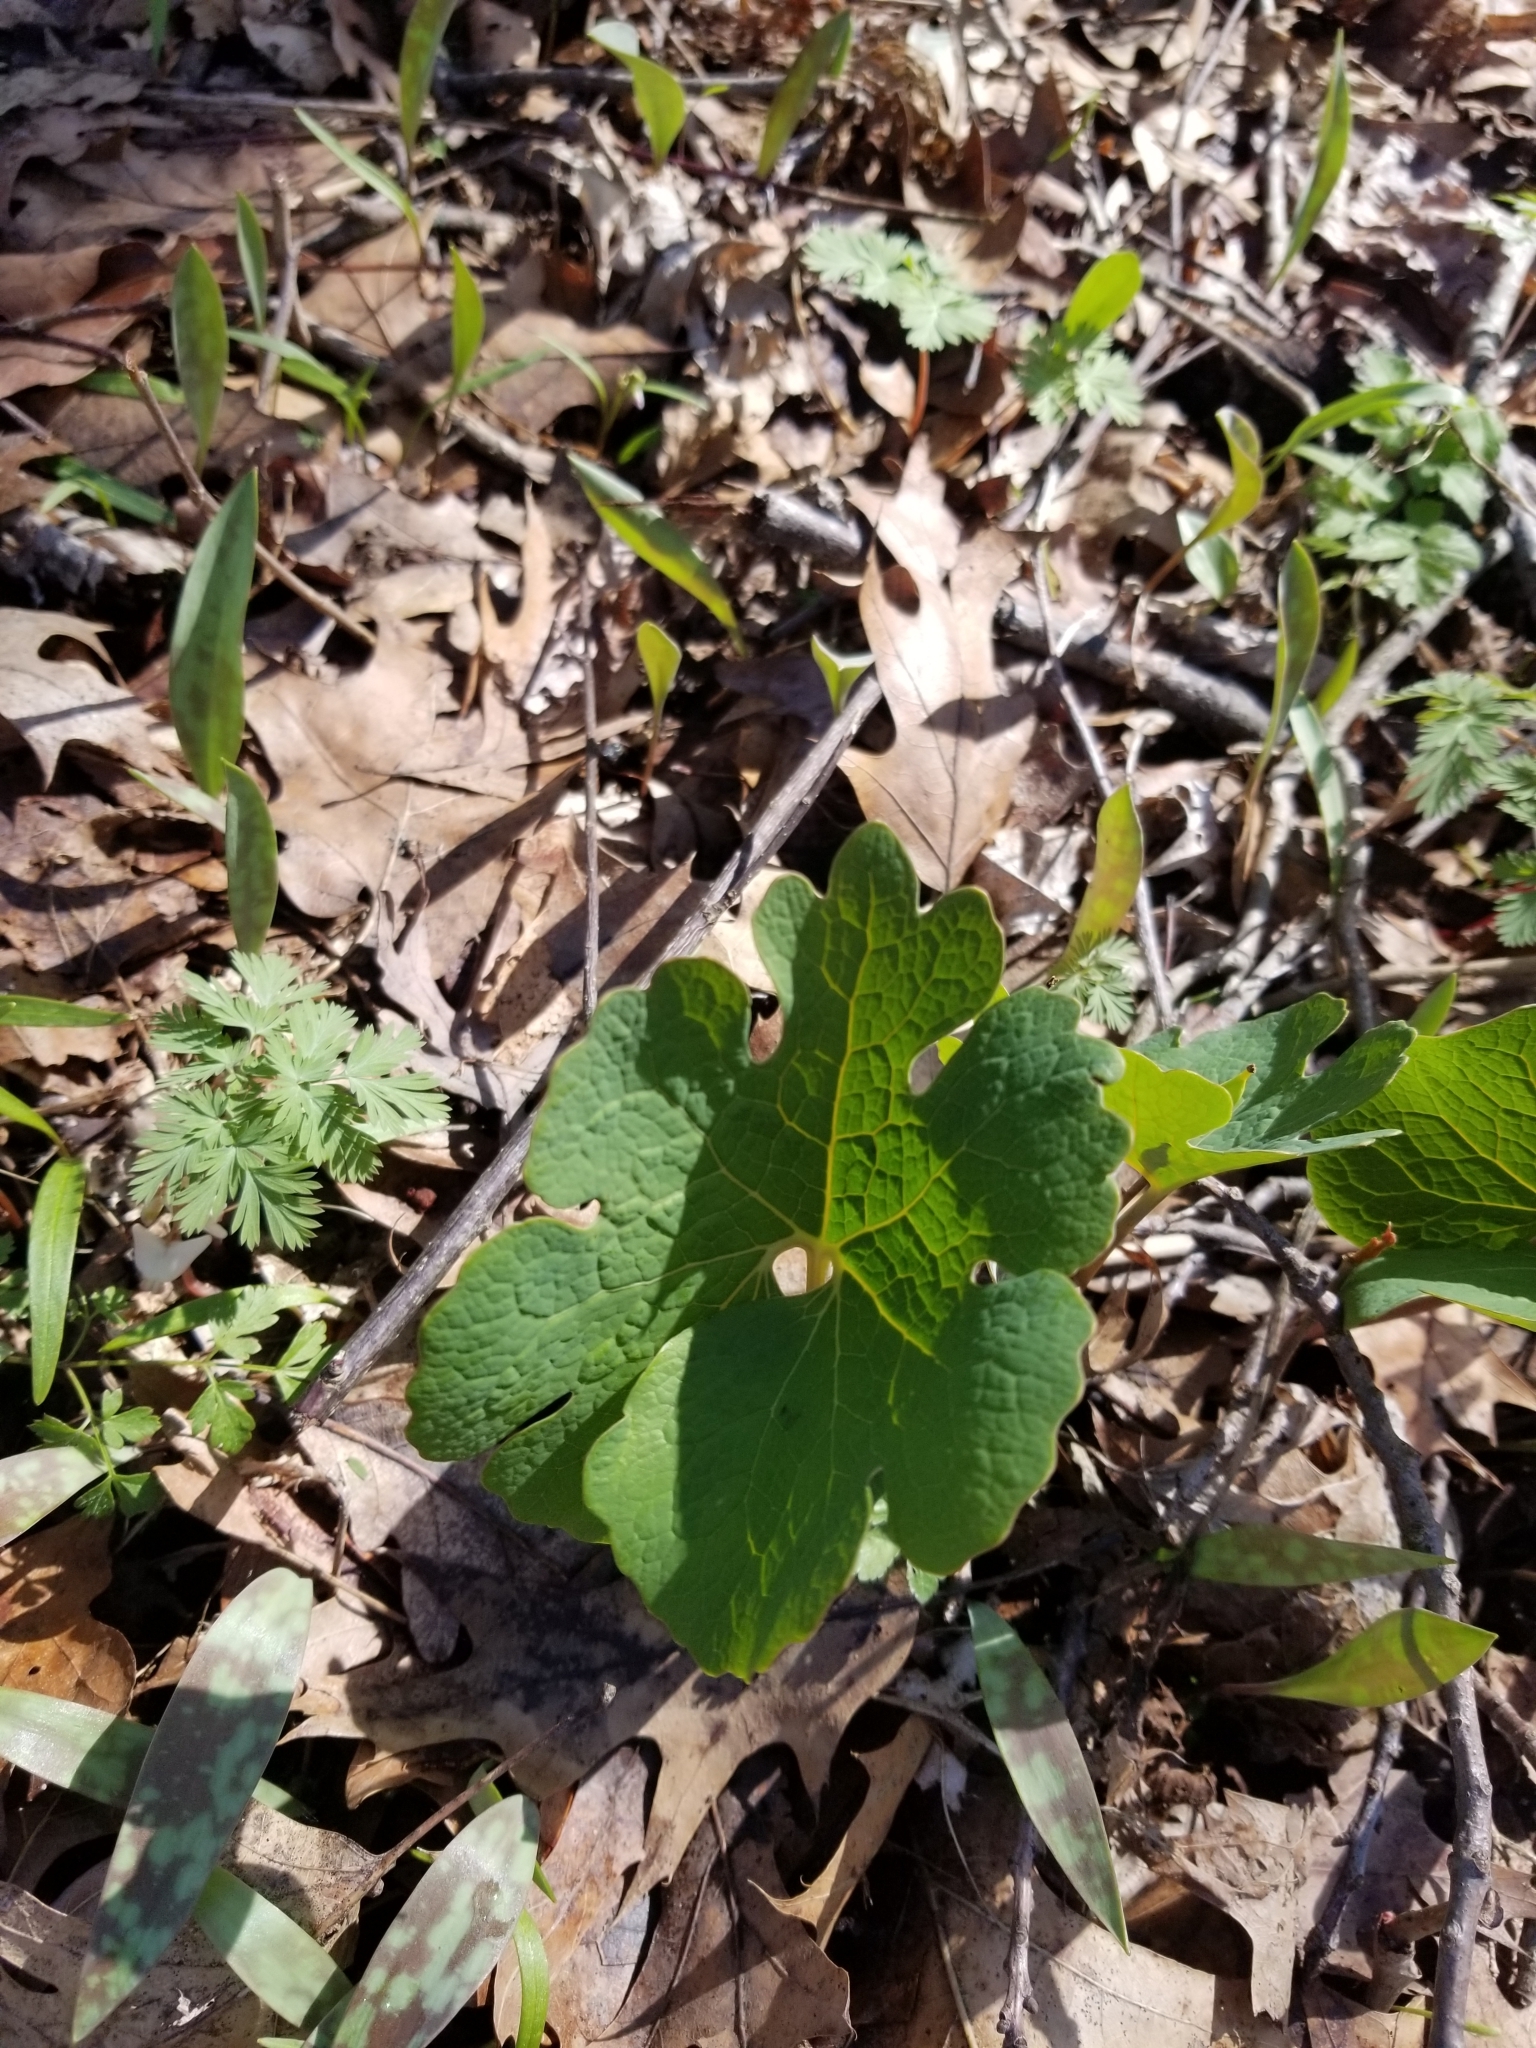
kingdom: Plantae
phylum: Tracheophyta
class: Magnoliopsida
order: Ranunculales
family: Papaveraceae
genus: Sanguinaria
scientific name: Sanguinaria canadensis
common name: Bloodroot
